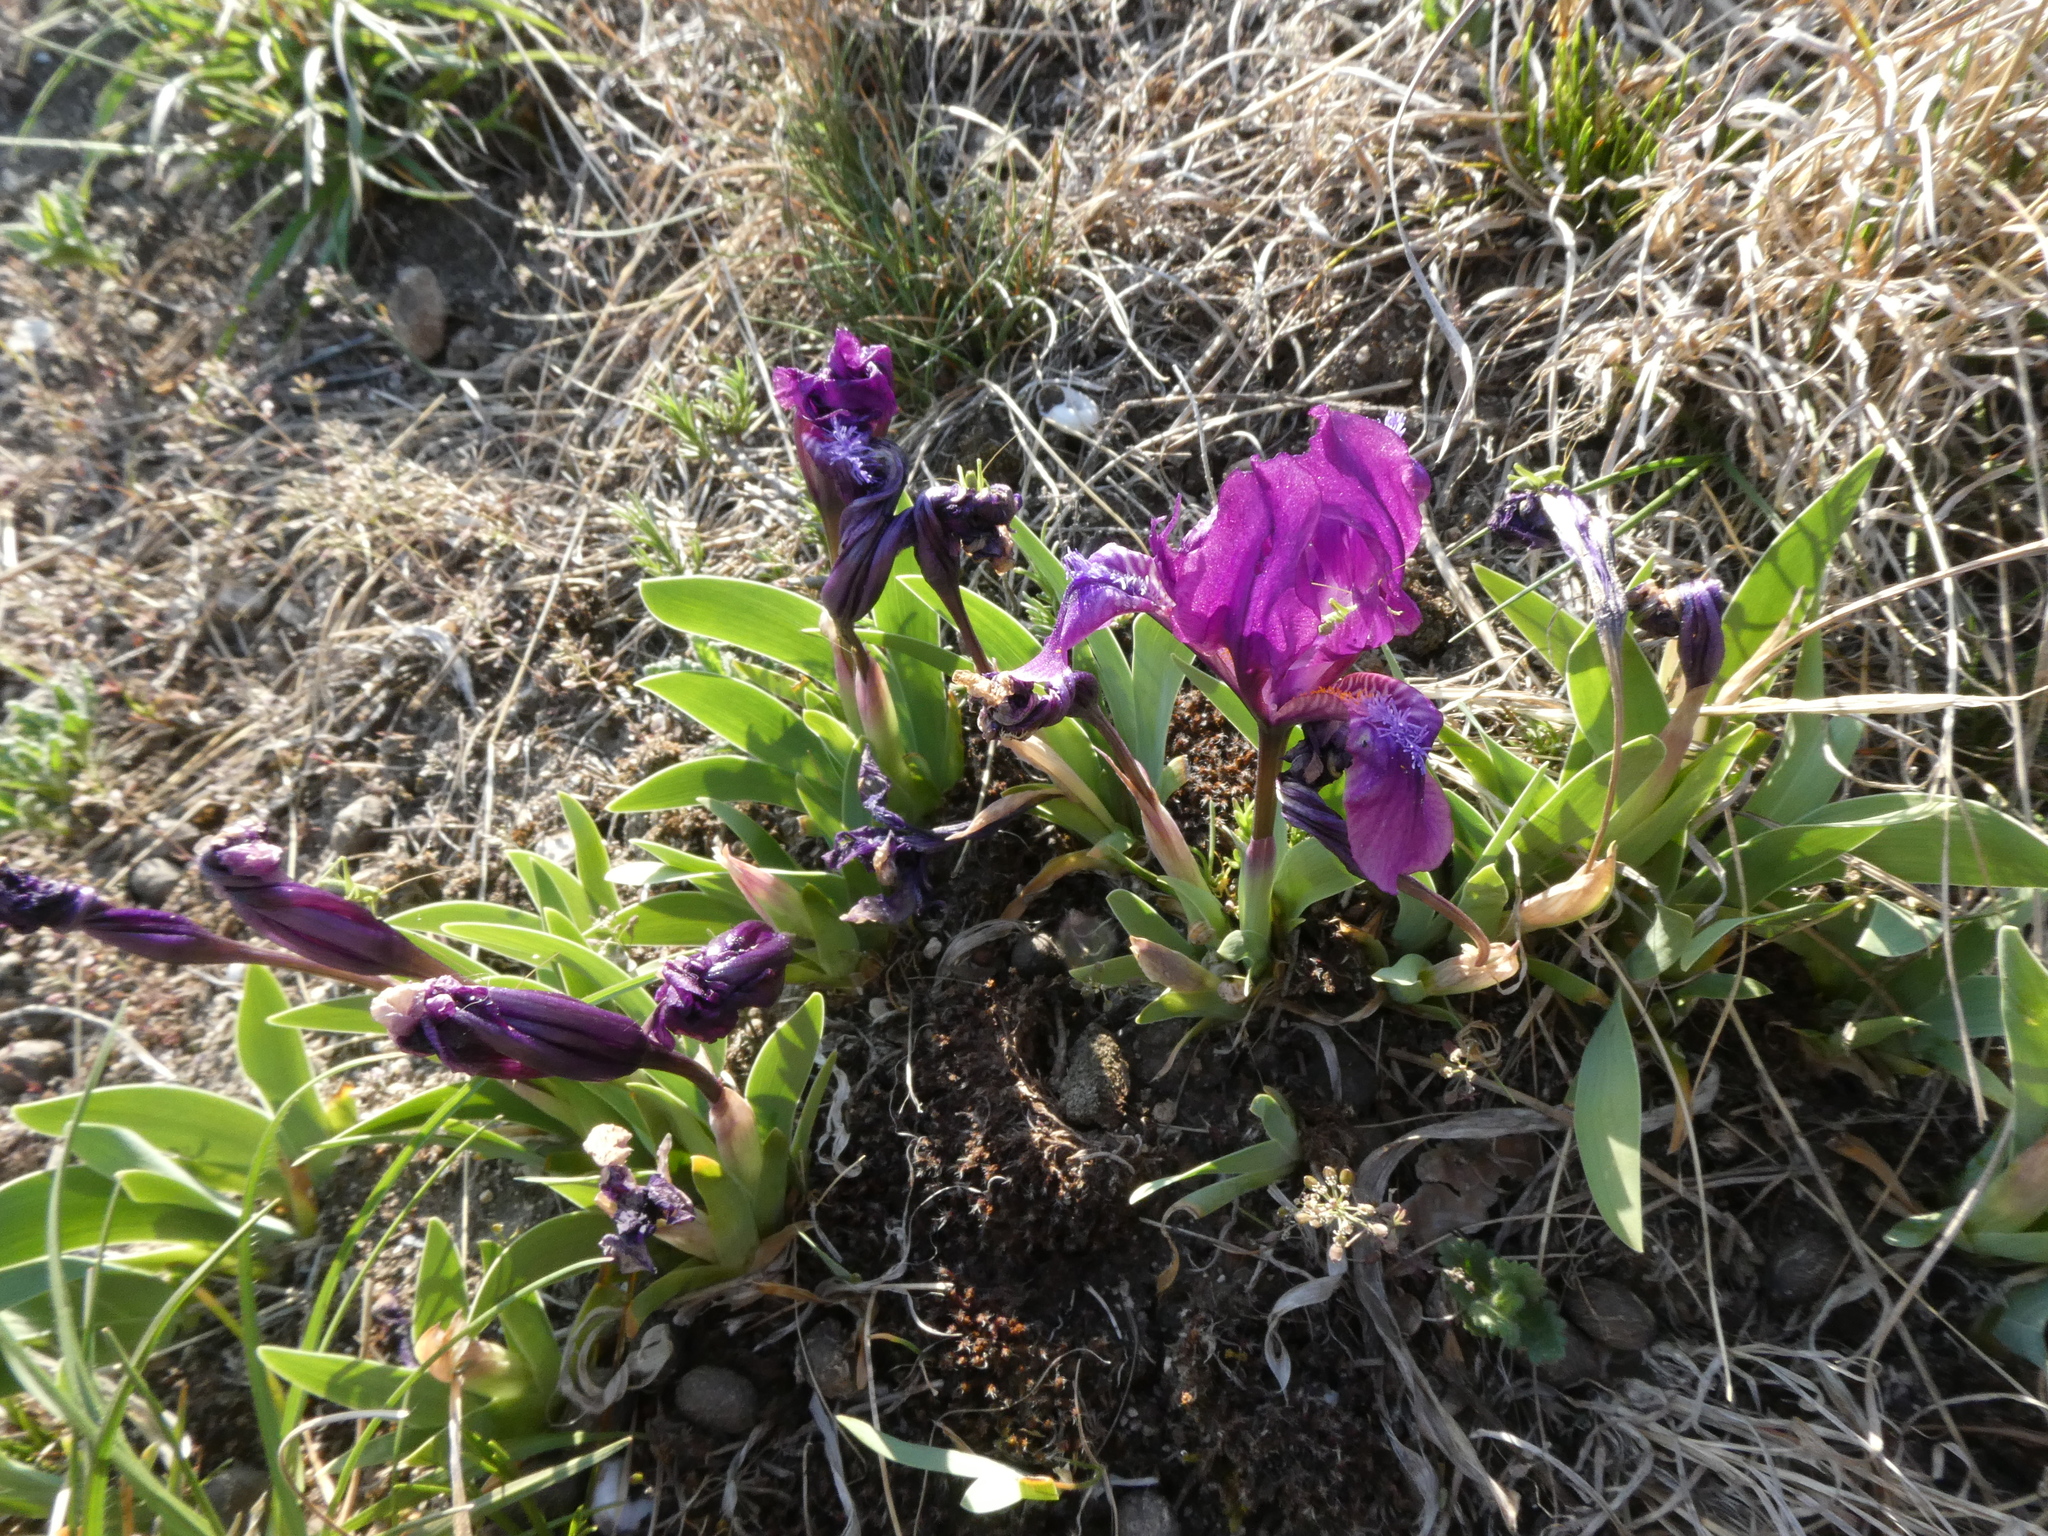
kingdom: Plantae
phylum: Tracheophyta
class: Liliopsida
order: Asparagales
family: Iridaceae
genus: Iris
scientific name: Iris pumila
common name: Dwarf iris
